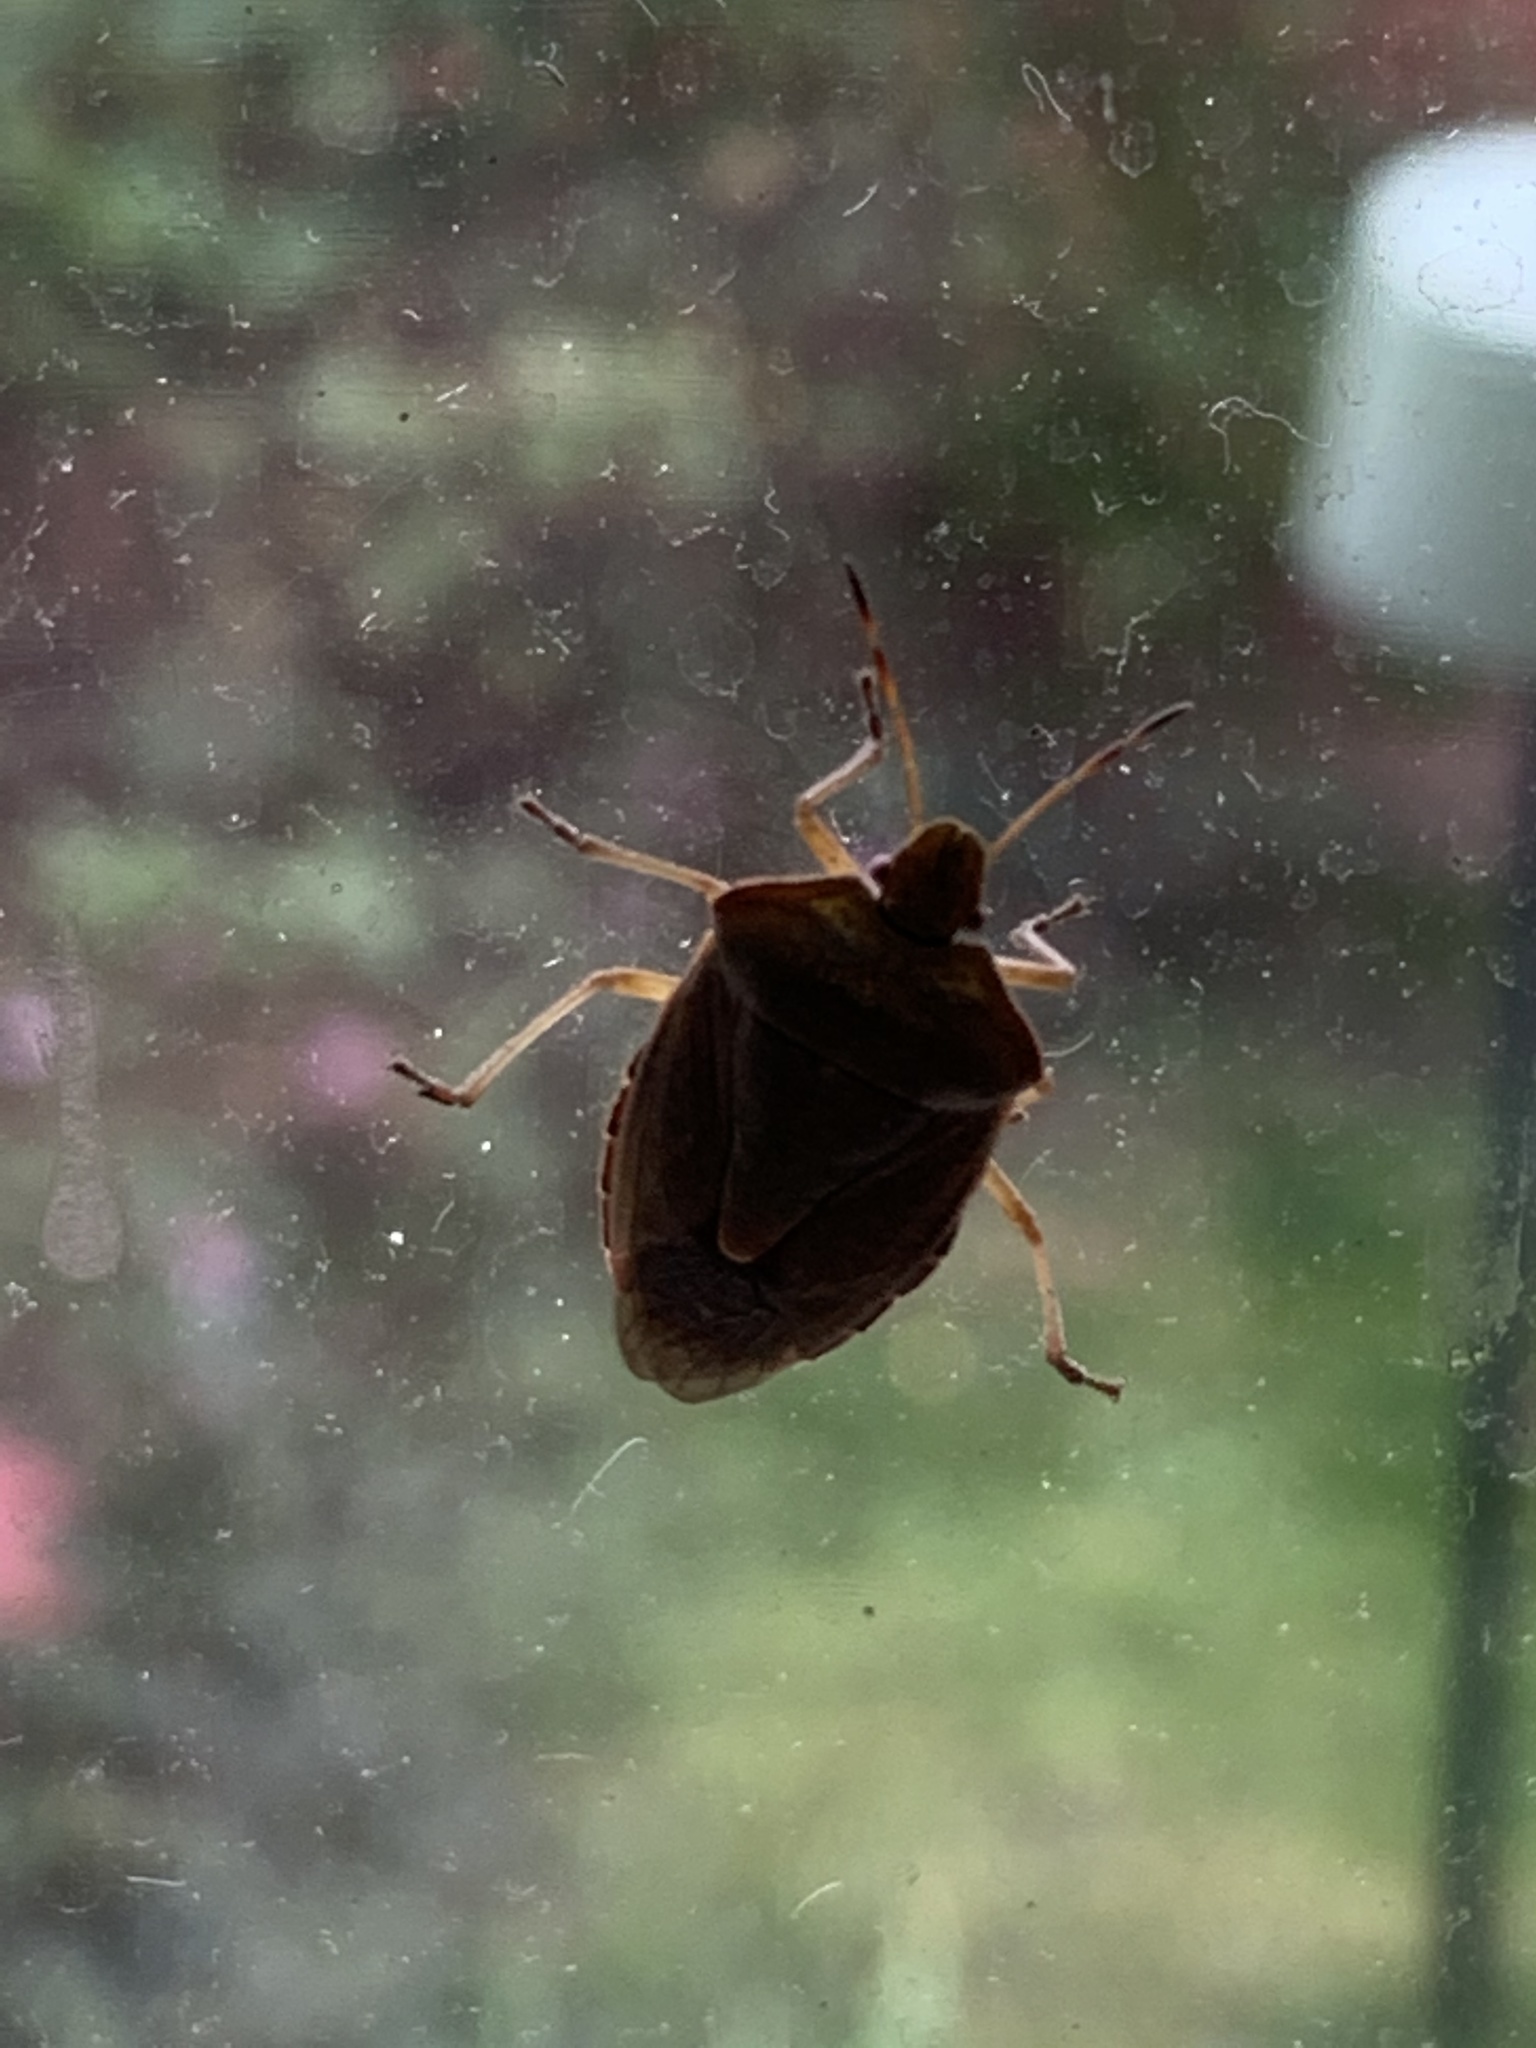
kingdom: Animalia
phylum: Arthropoda
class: Insecta
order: Hemiptera
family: Pentatomidae
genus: Palomena
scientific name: Palomena prasina
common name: Green shieldbug
